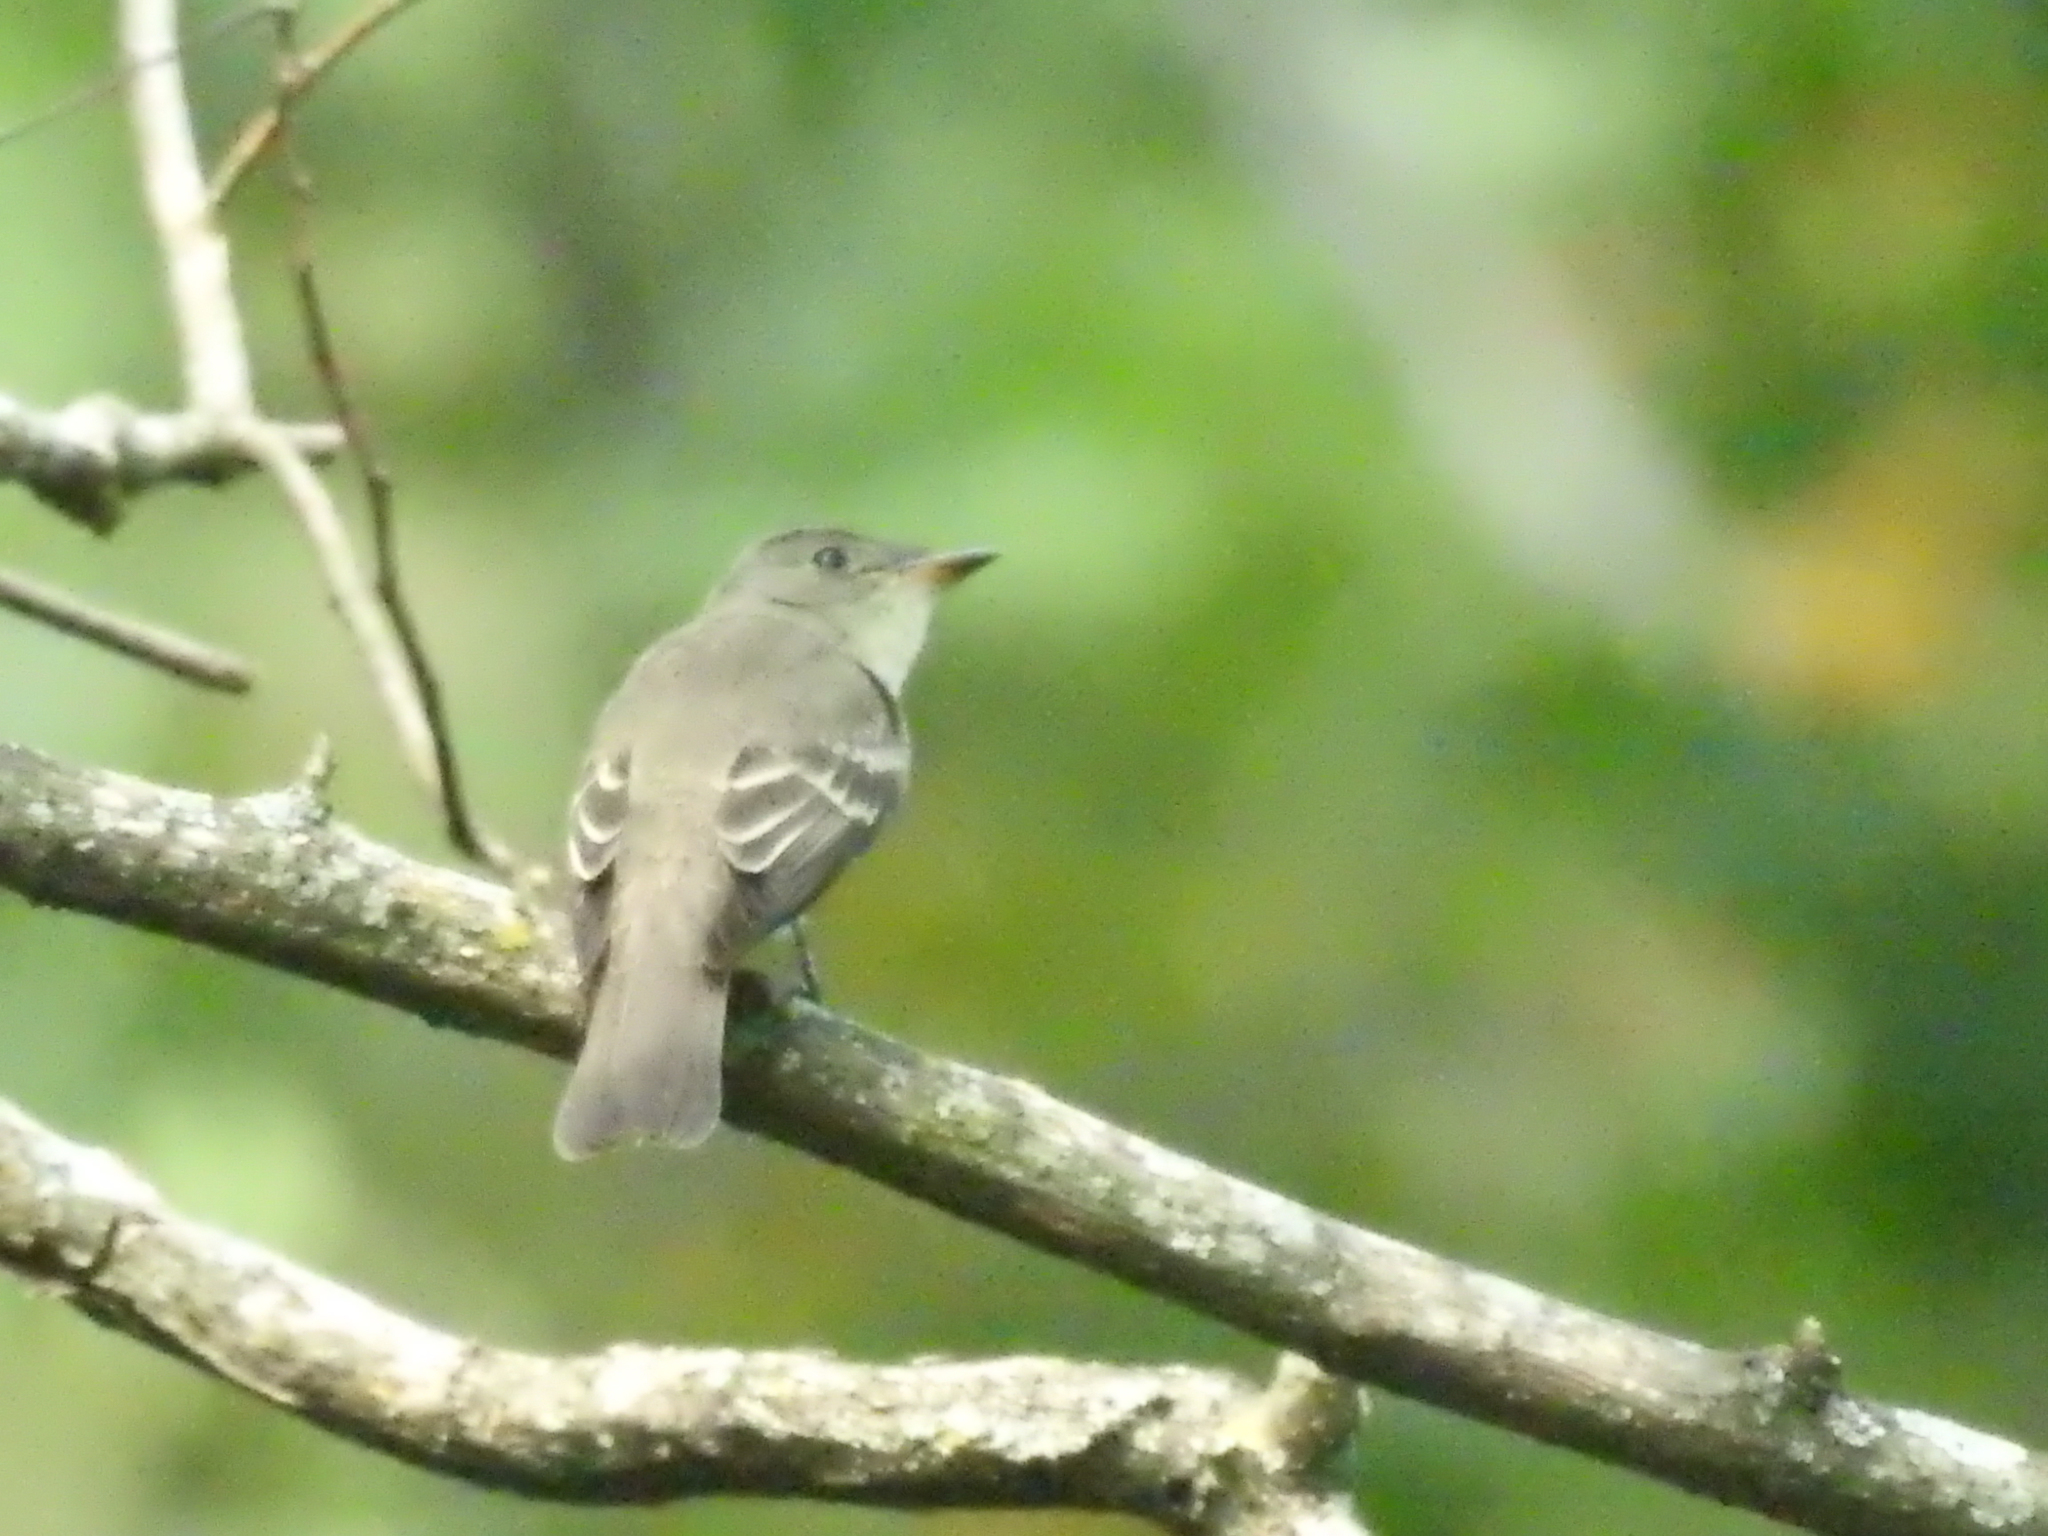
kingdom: Animalia
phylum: Chordata
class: Aves
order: Passeriformes
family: Tyrannidae
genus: Contopus
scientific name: Contopus virens
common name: Eastern wood-pewee
